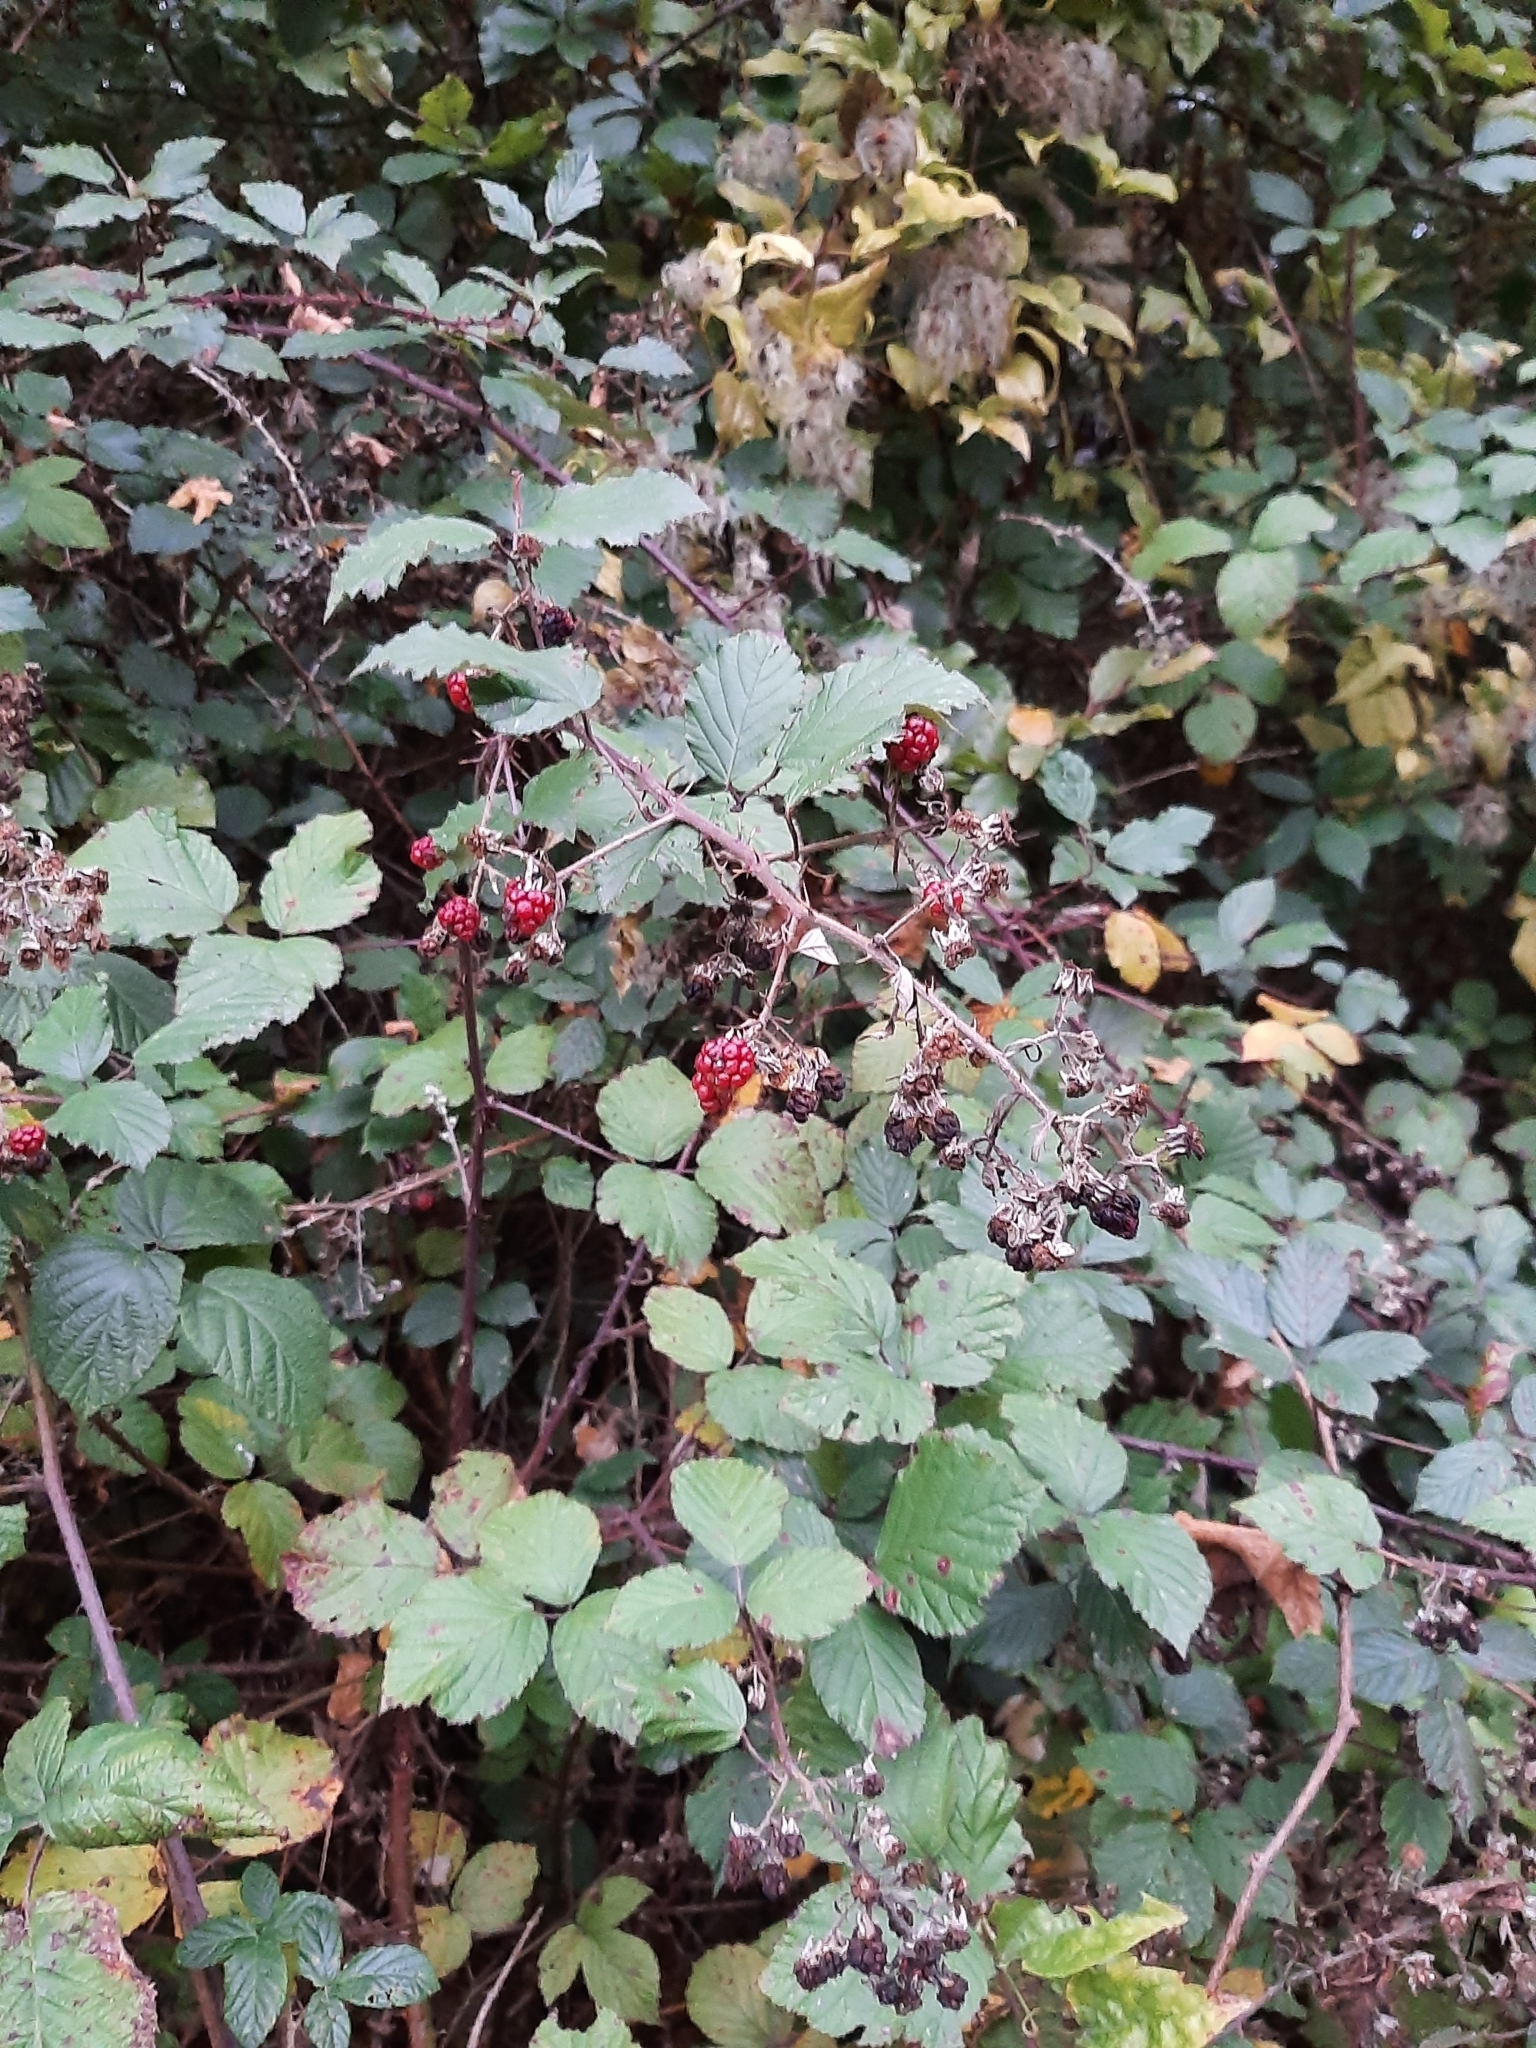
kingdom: Plantae
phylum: Tracheophyta
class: Magnoliopsida
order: Rosales
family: Rosaceae
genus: Rubus
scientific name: Rubus
